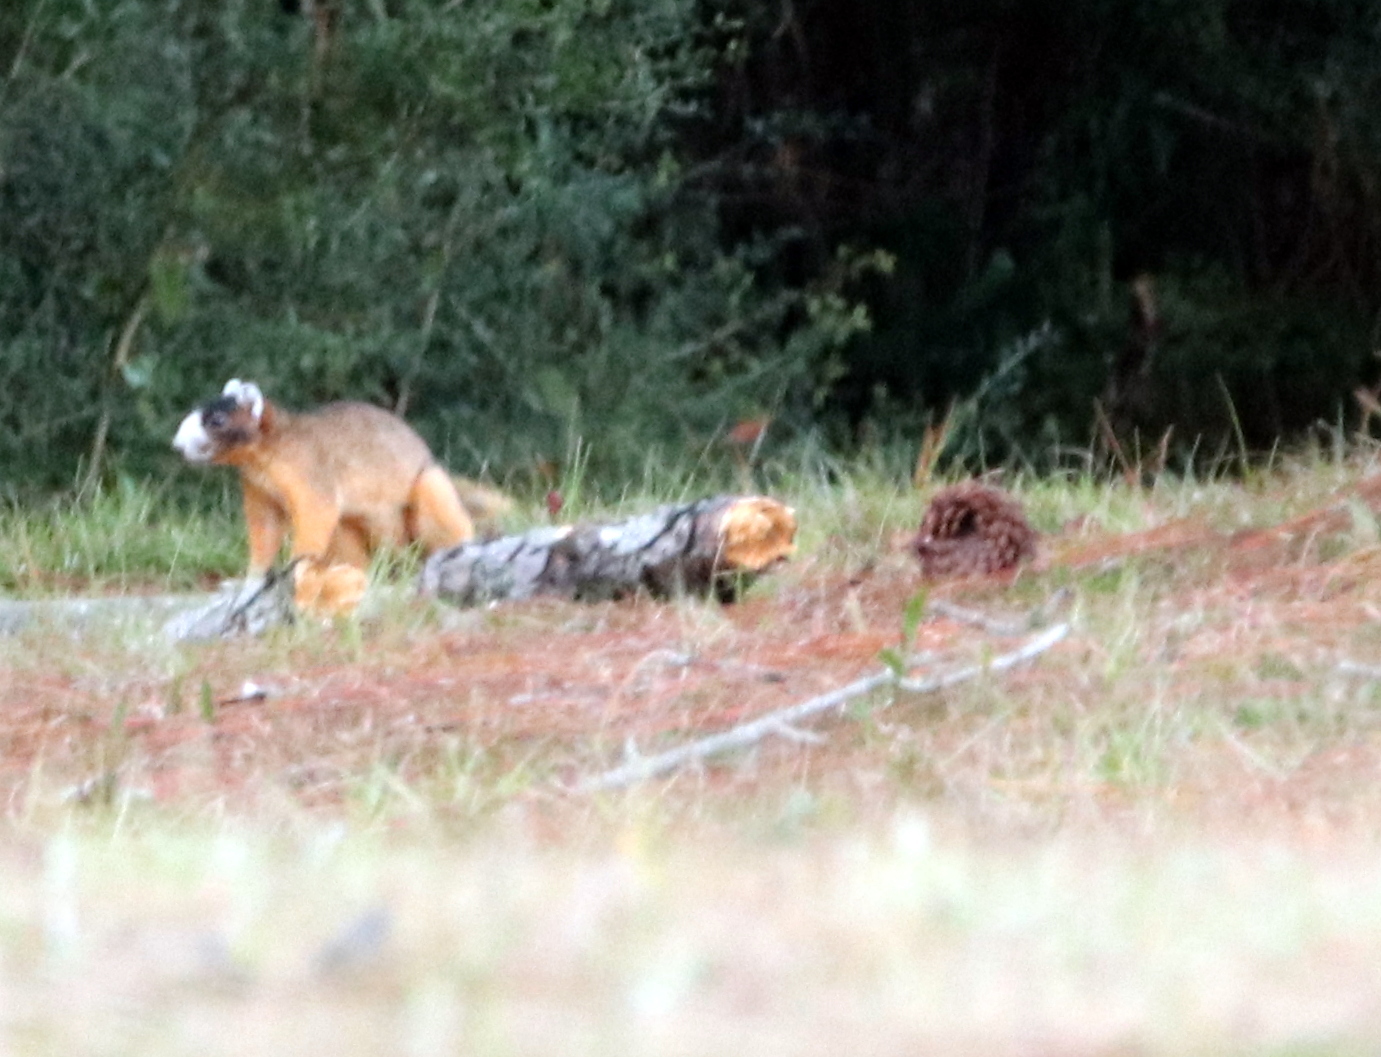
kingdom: Animalia
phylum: Chordata
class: Mammalia
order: Rodentia
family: Sciuridae
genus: Sciurus
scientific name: Sciurus niger
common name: Fox squirrel
